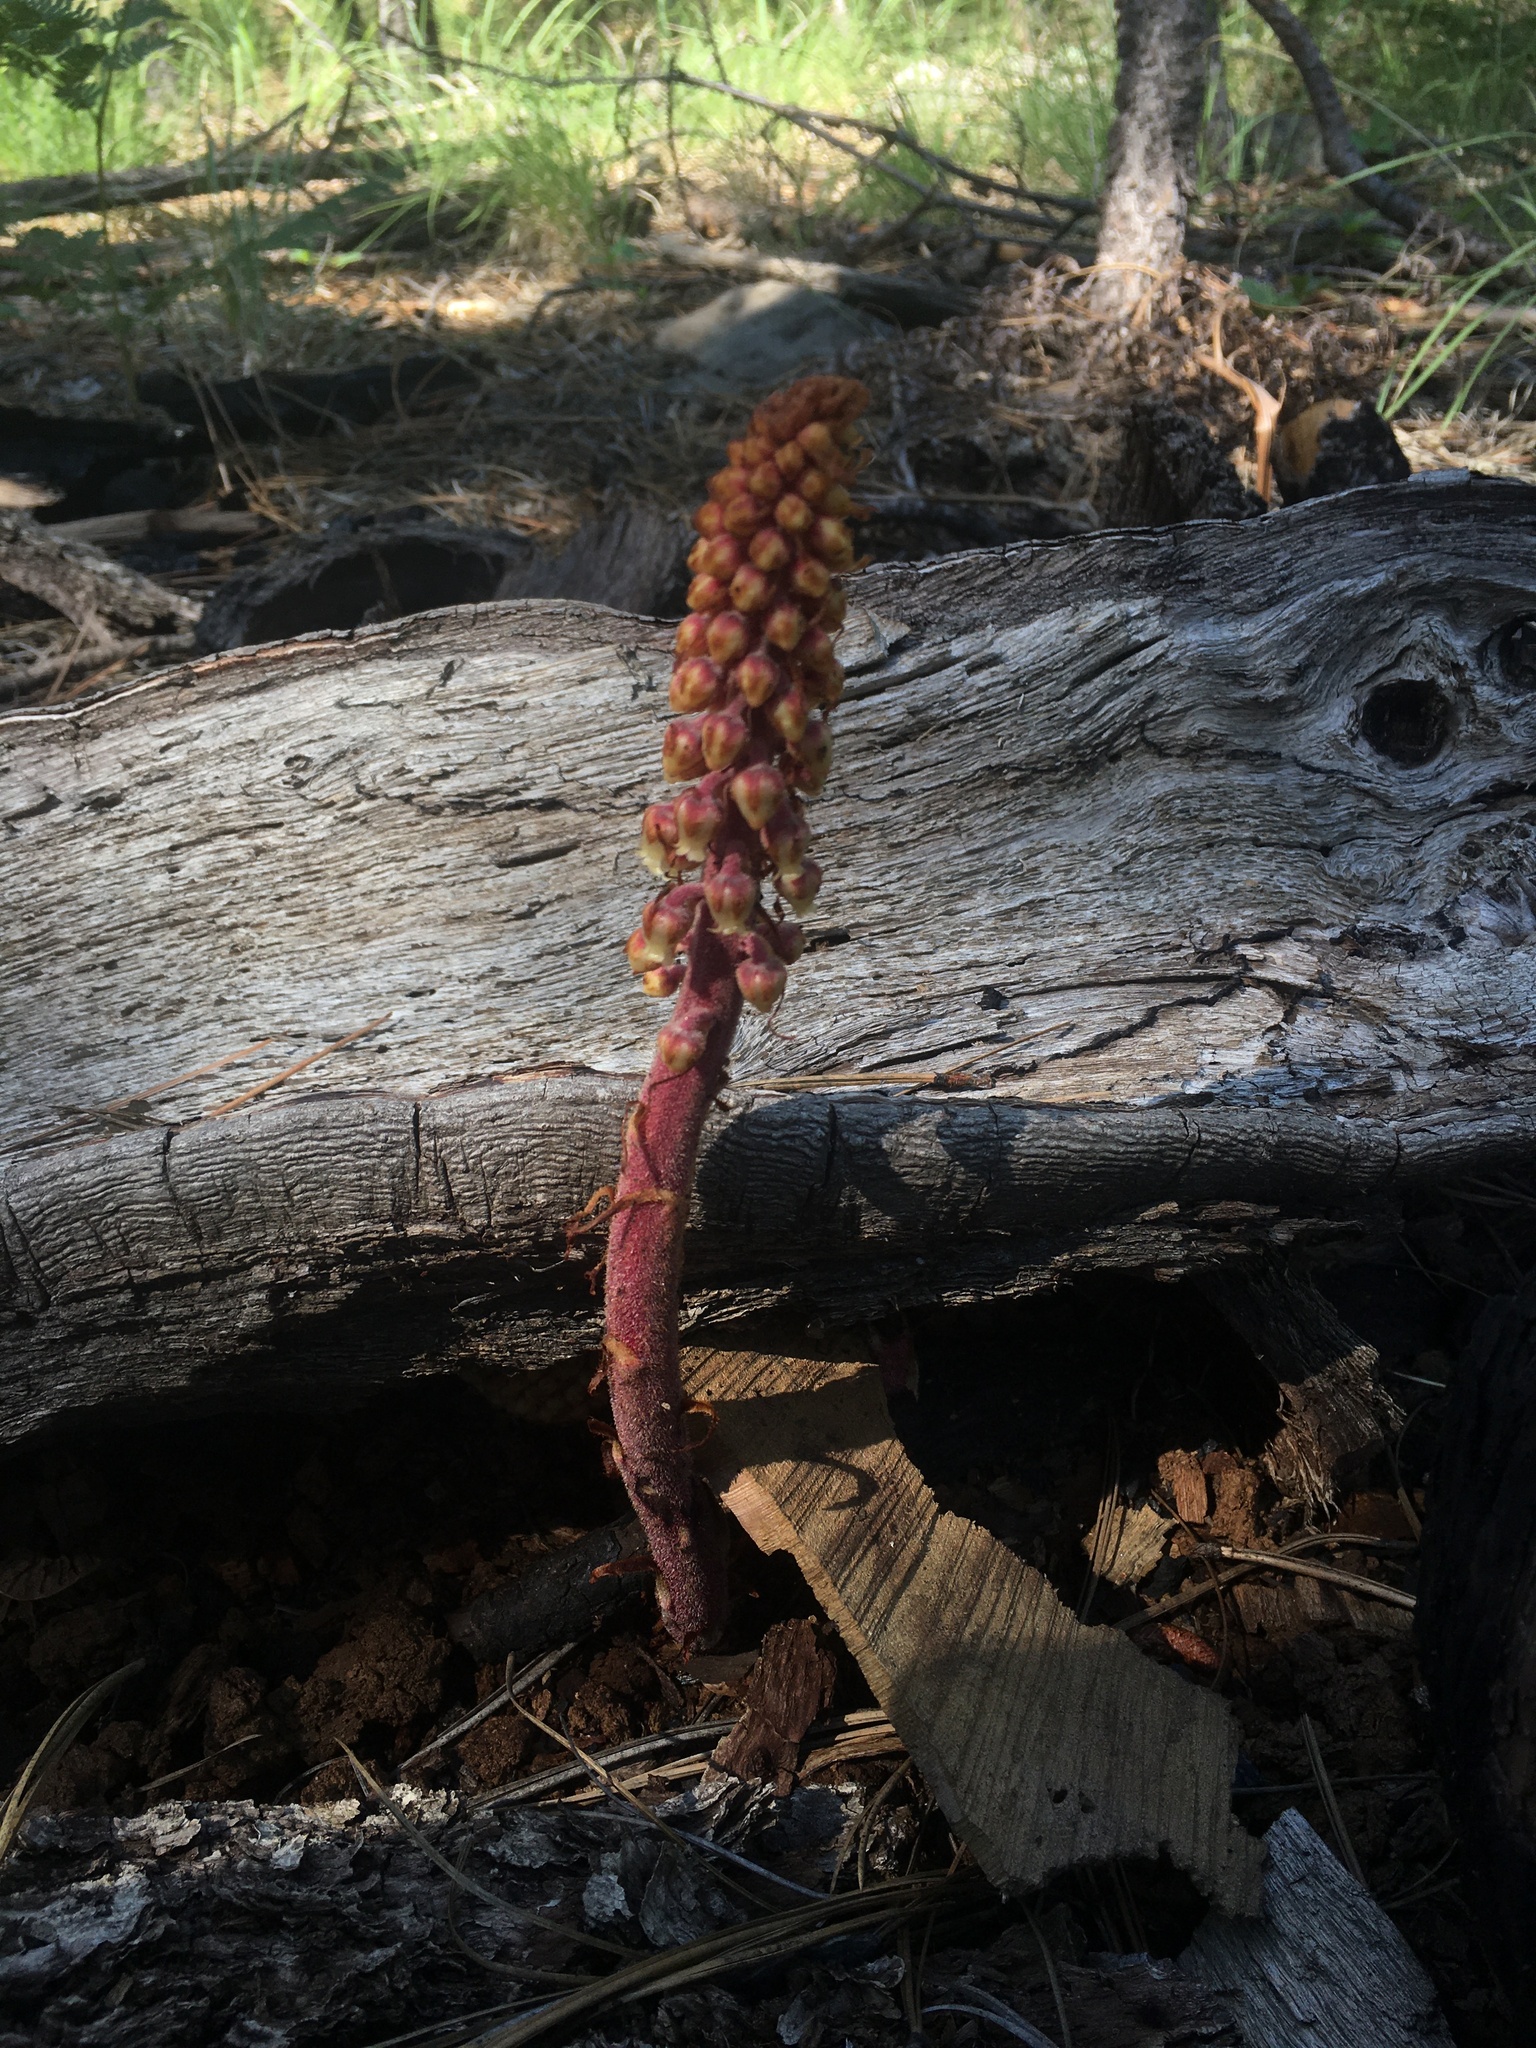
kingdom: Plantae
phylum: Tracheophyta
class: Magnoliopsida
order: Ericales
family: Ericaceae
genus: Pterospora
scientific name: Pterospora andromedea
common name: Giant bird's-nest
